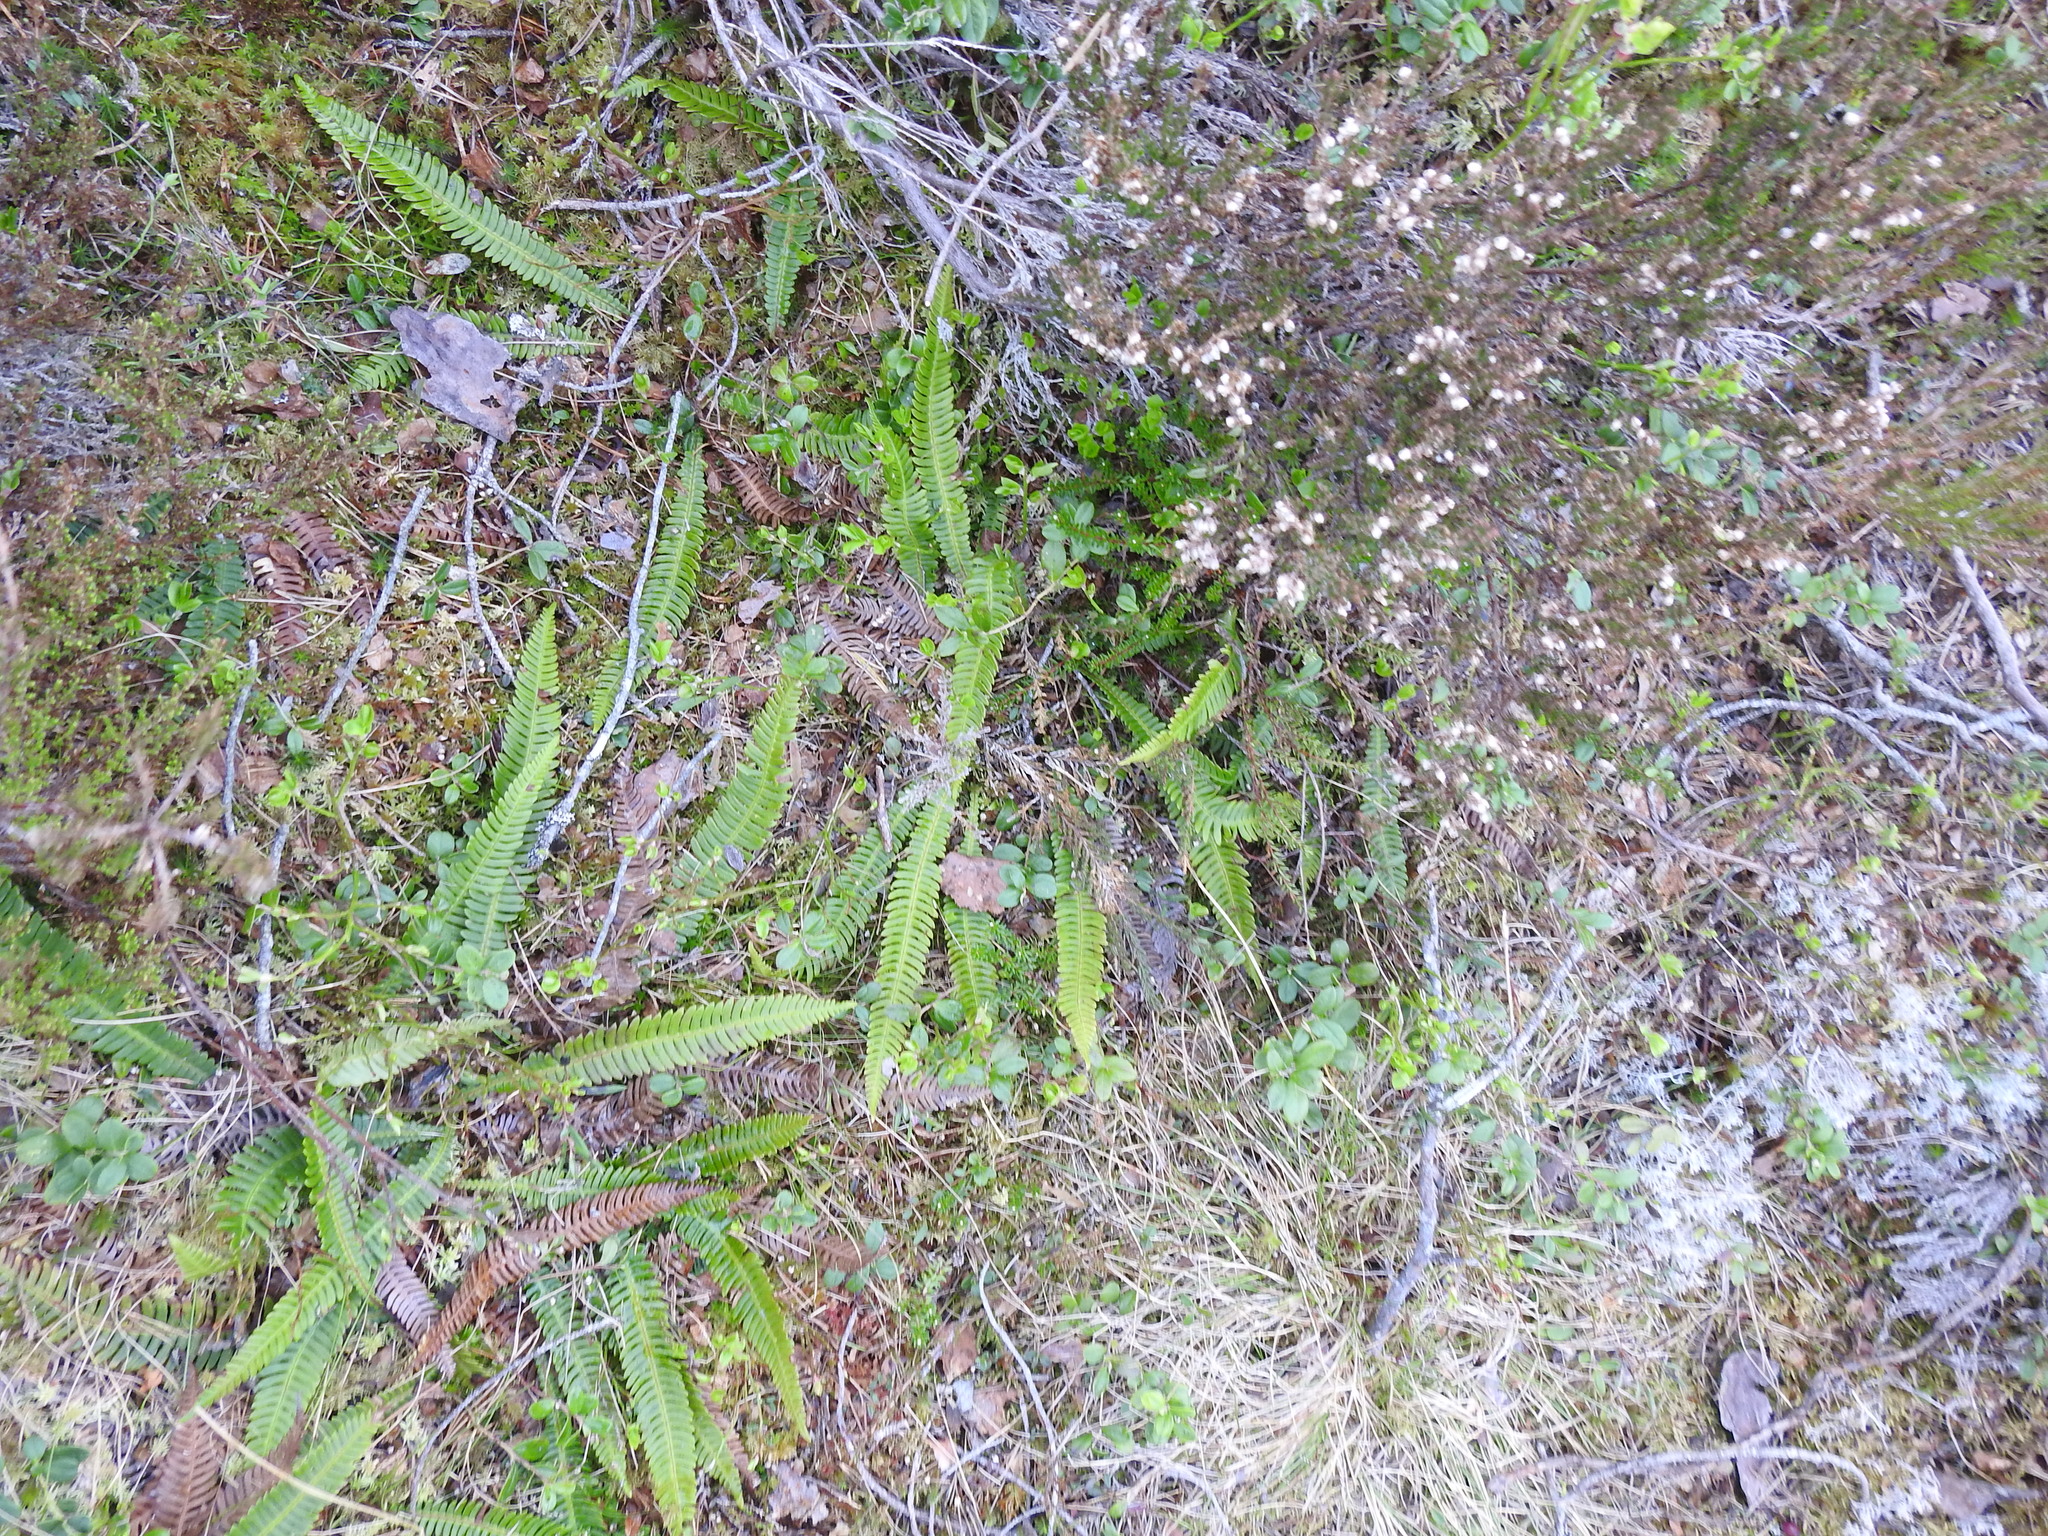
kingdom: Plantae
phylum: Tracheophyta
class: Polypodiopsida
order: Polypodiales
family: Blechnaceae
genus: Struthiopteris
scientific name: Struthiopteris spicant
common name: Deer fern
